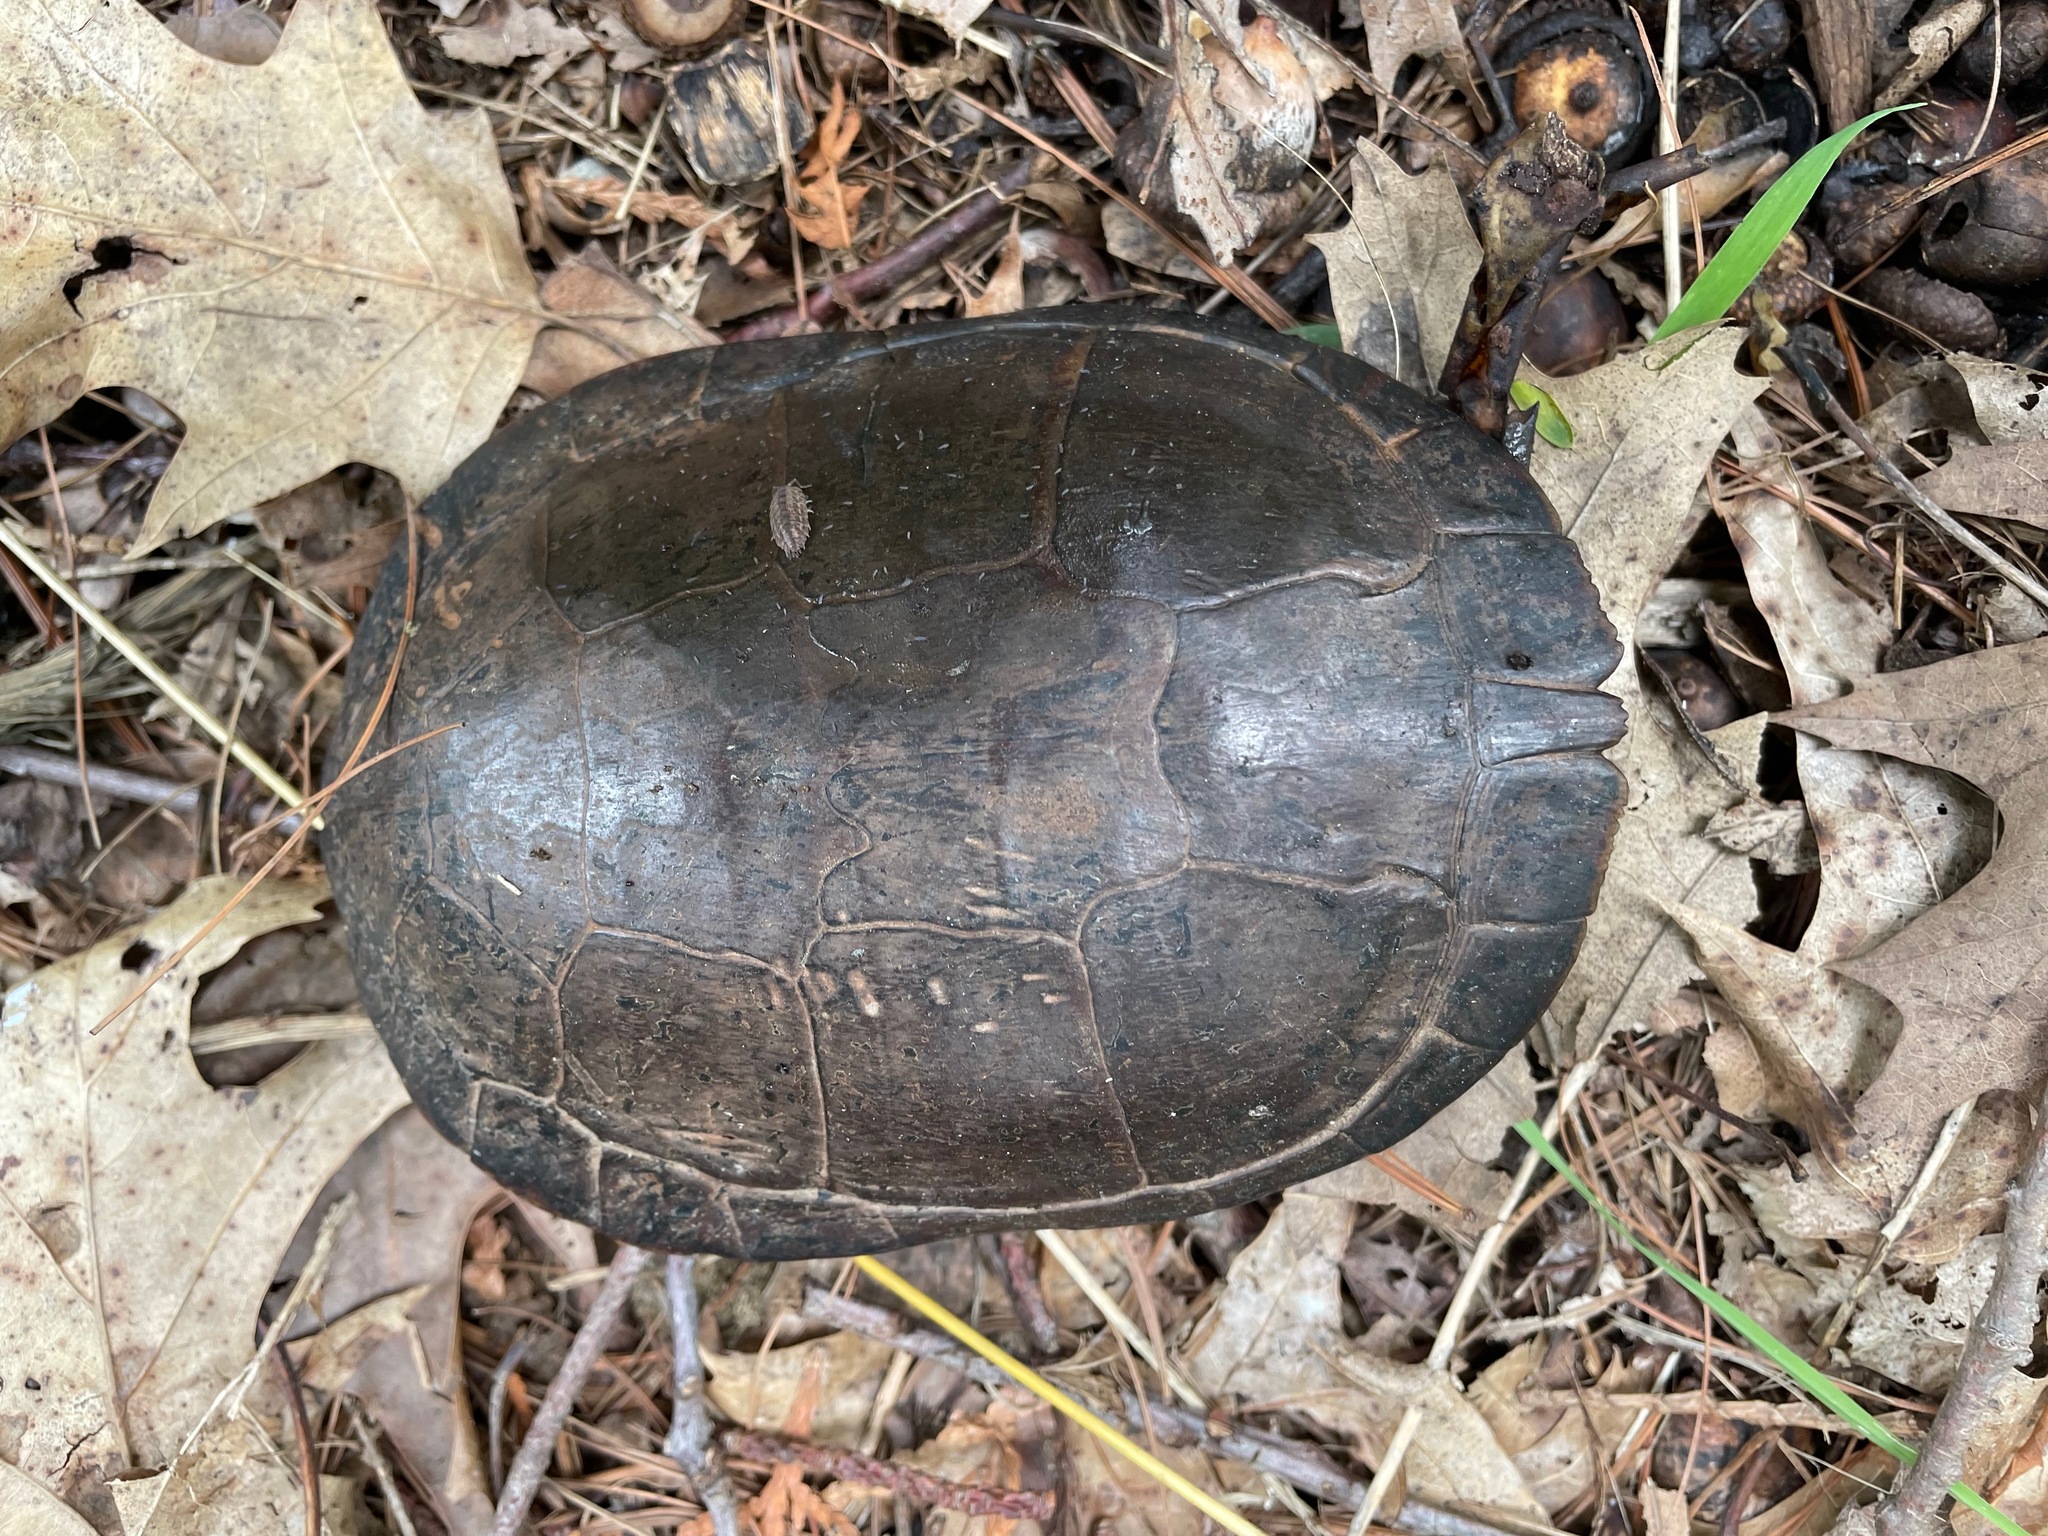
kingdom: Animalia
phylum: Chordata
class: Testudines
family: Emydidae
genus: Chrysemys
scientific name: Chrysemys picta
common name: Painted turtle
